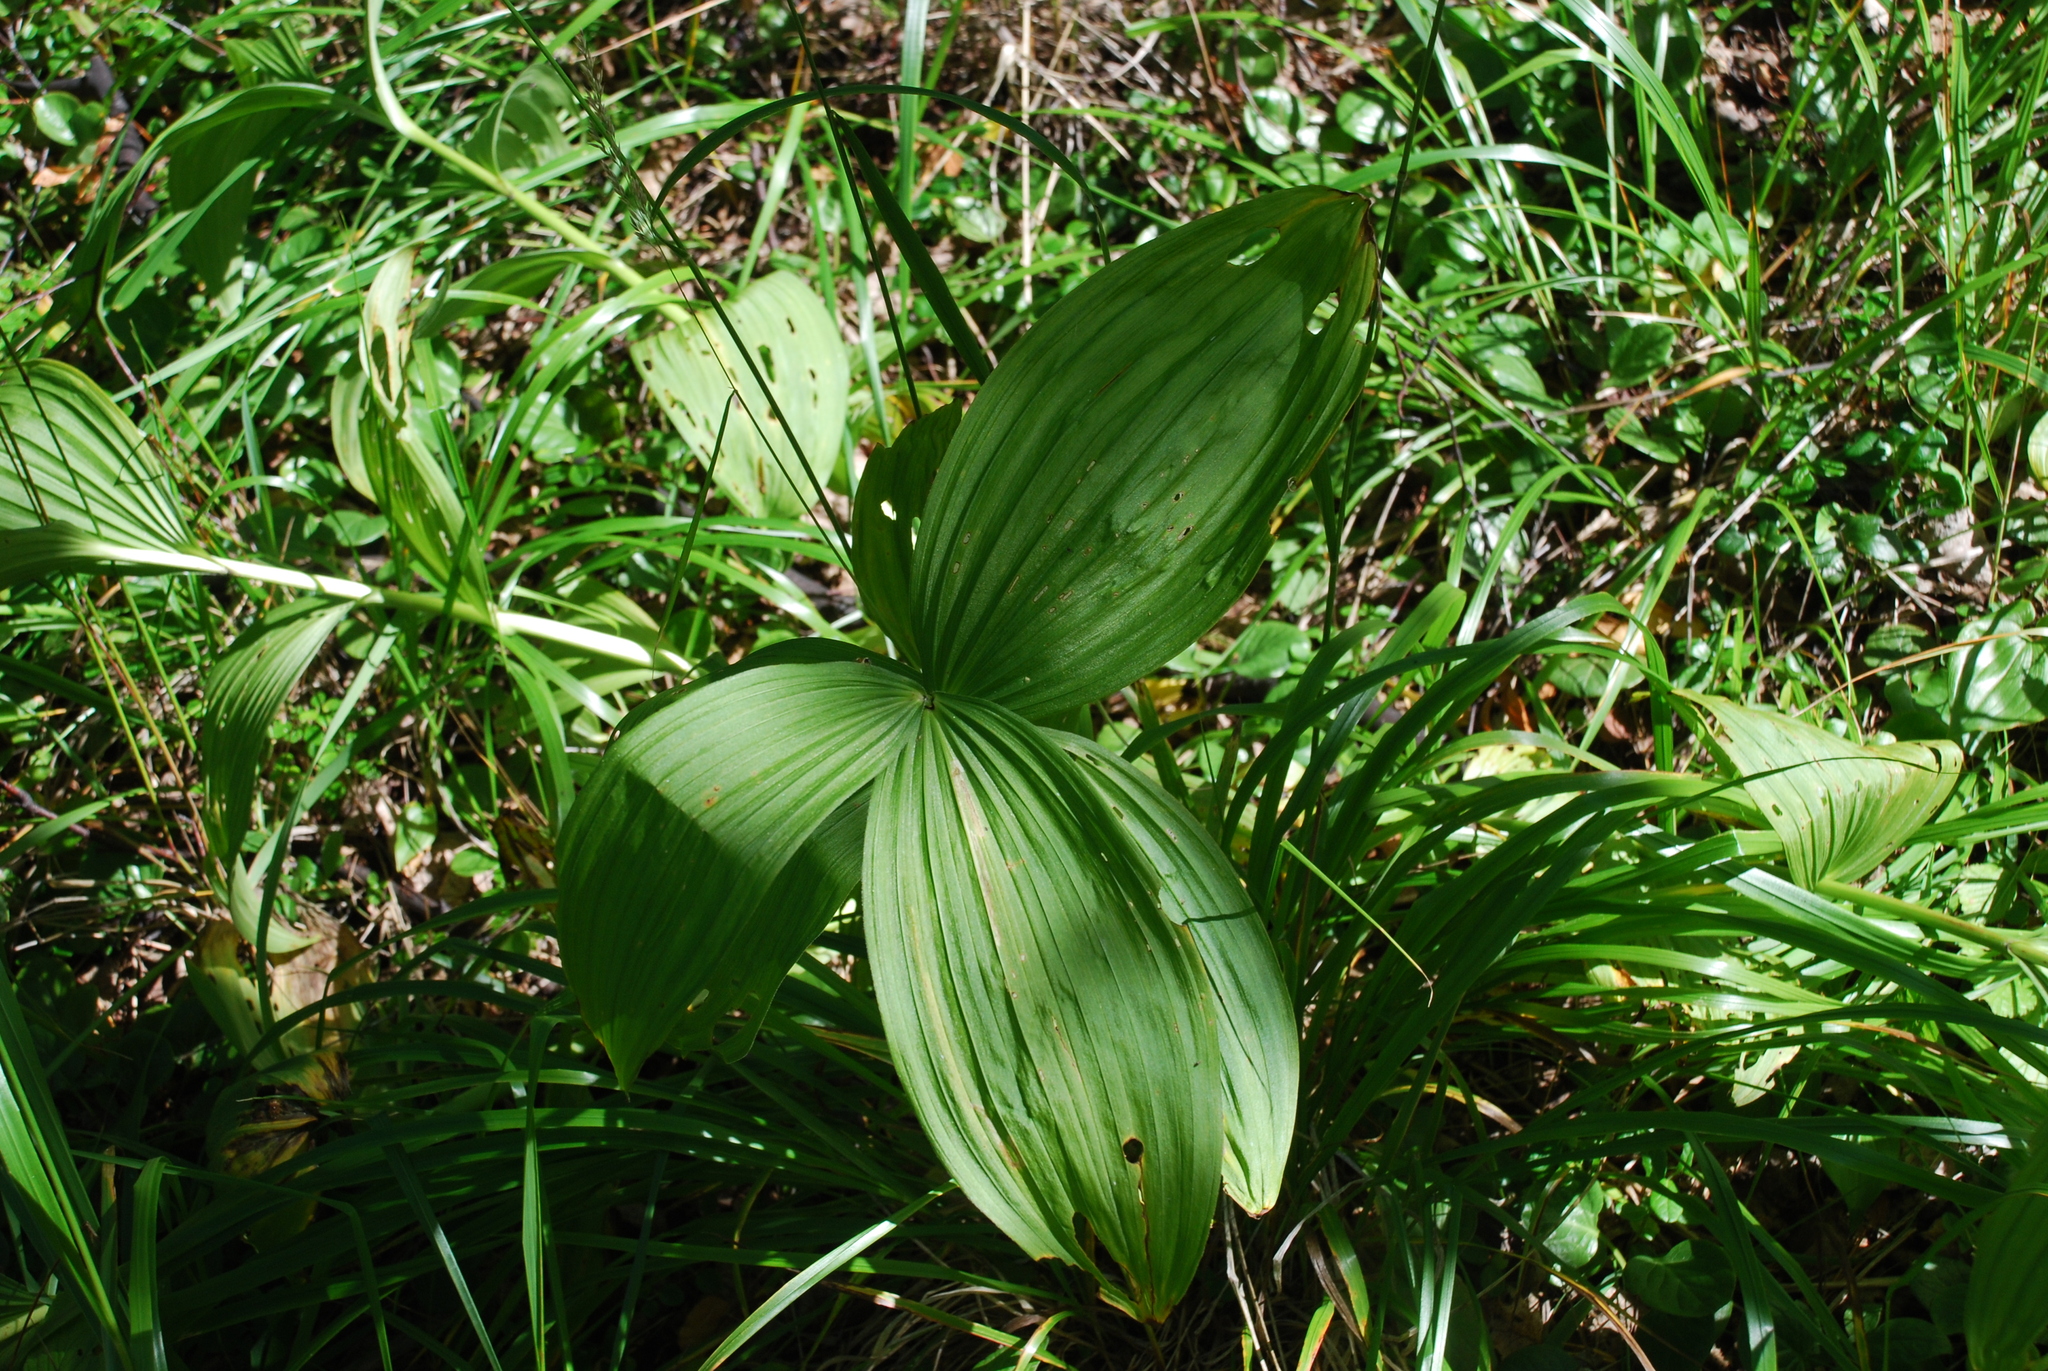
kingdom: Plantae
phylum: Tracheophyta
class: Liliopsida
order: Liliales
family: Melanthiaceae
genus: Veratrum
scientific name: Veratrum lobelianum
